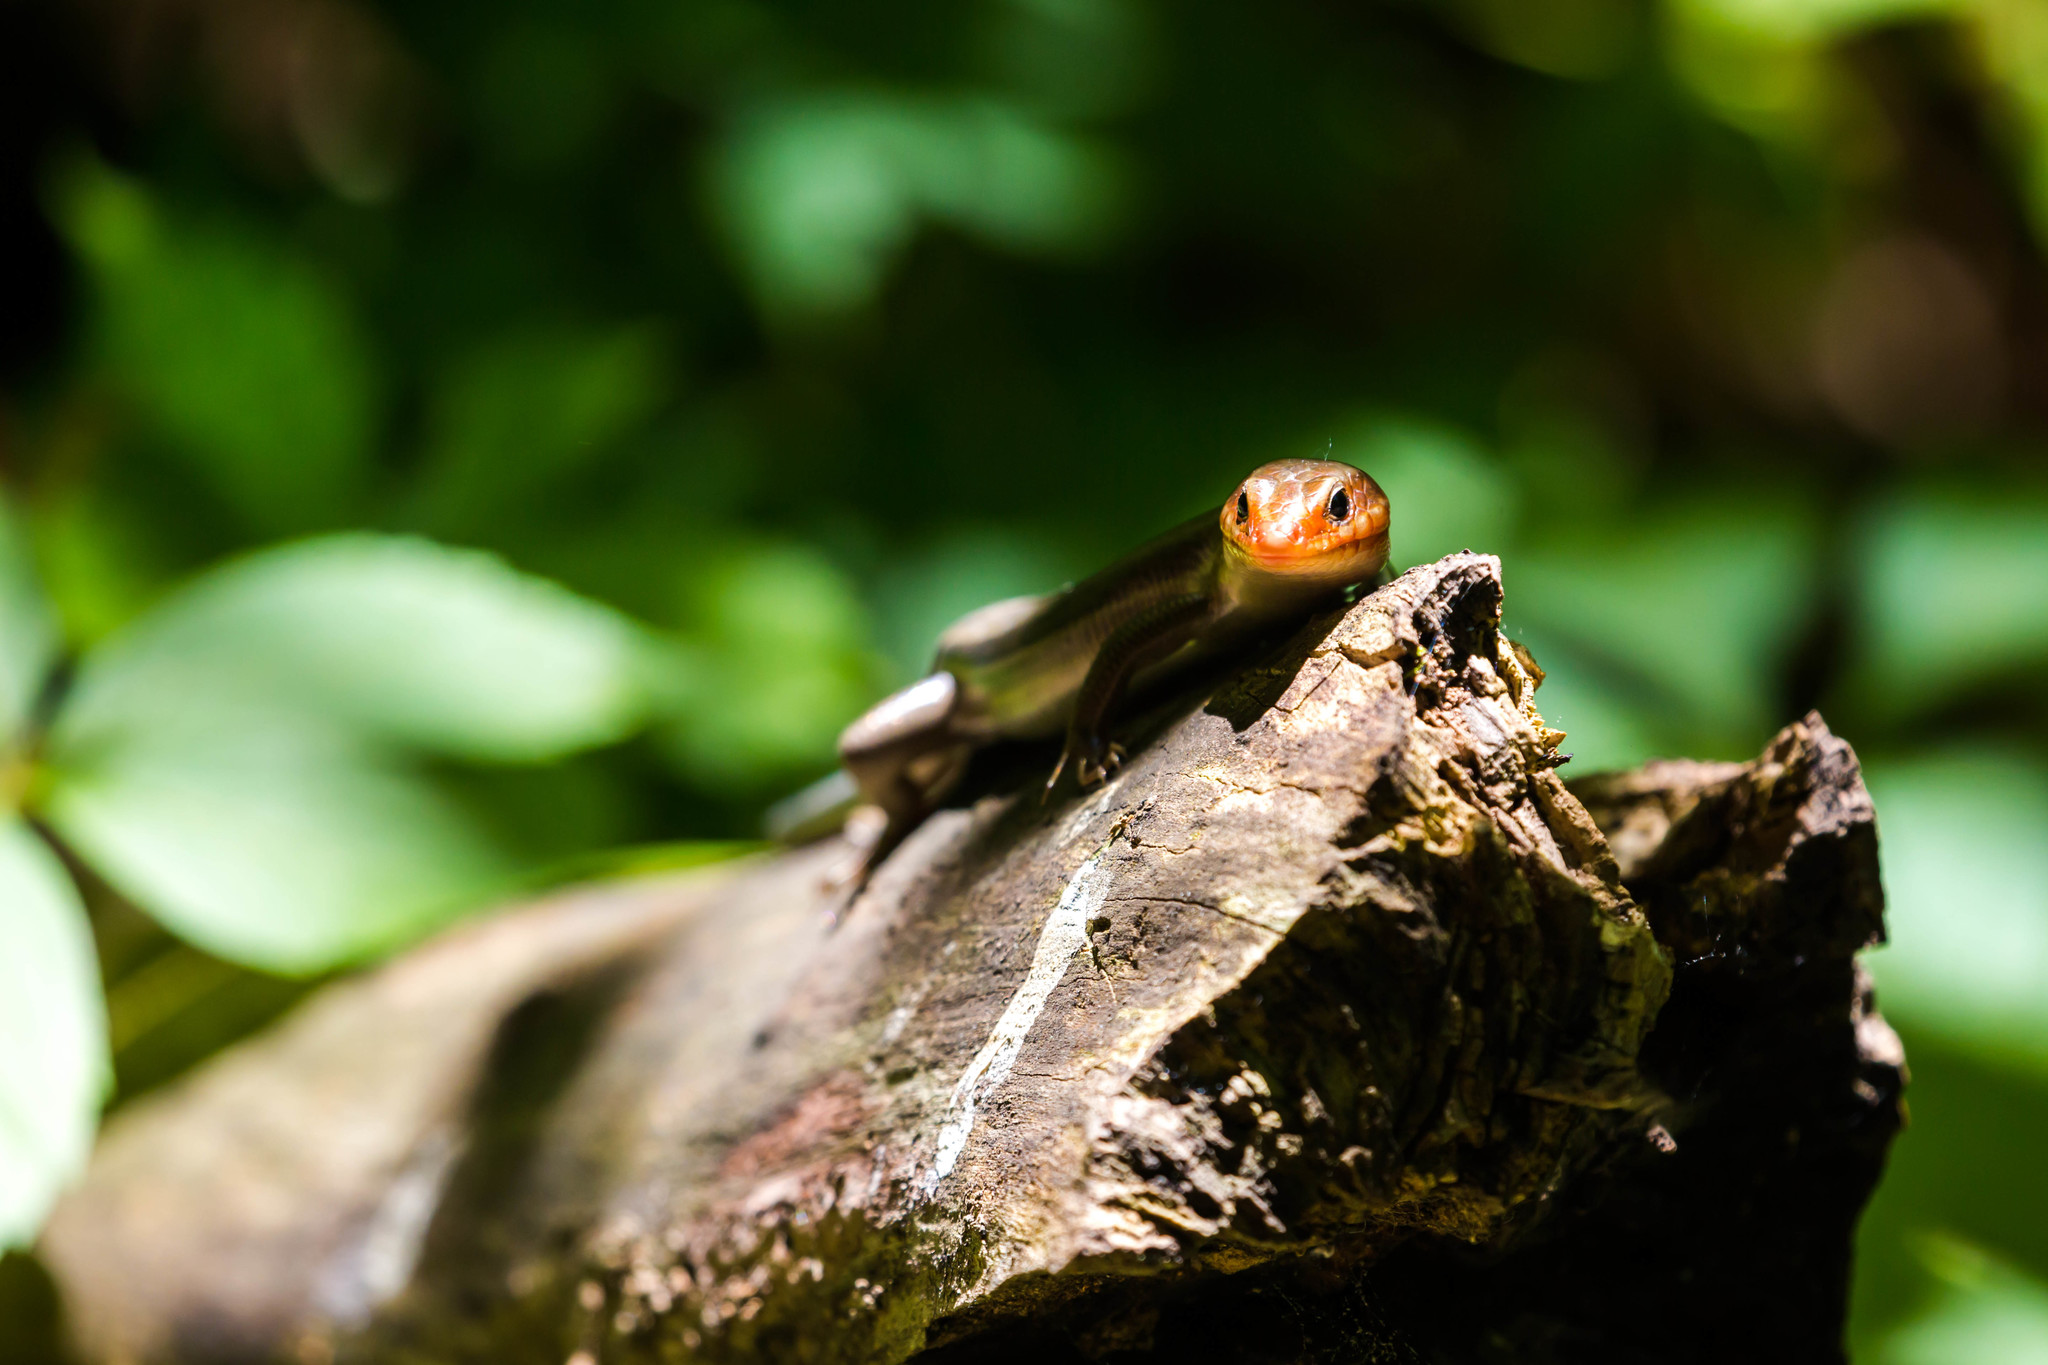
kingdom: Animalia
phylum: Chordata
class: Squamata
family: Scincidae
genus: Plestiodon
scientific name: Plestiodon laticeps
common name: Broadhead skink
